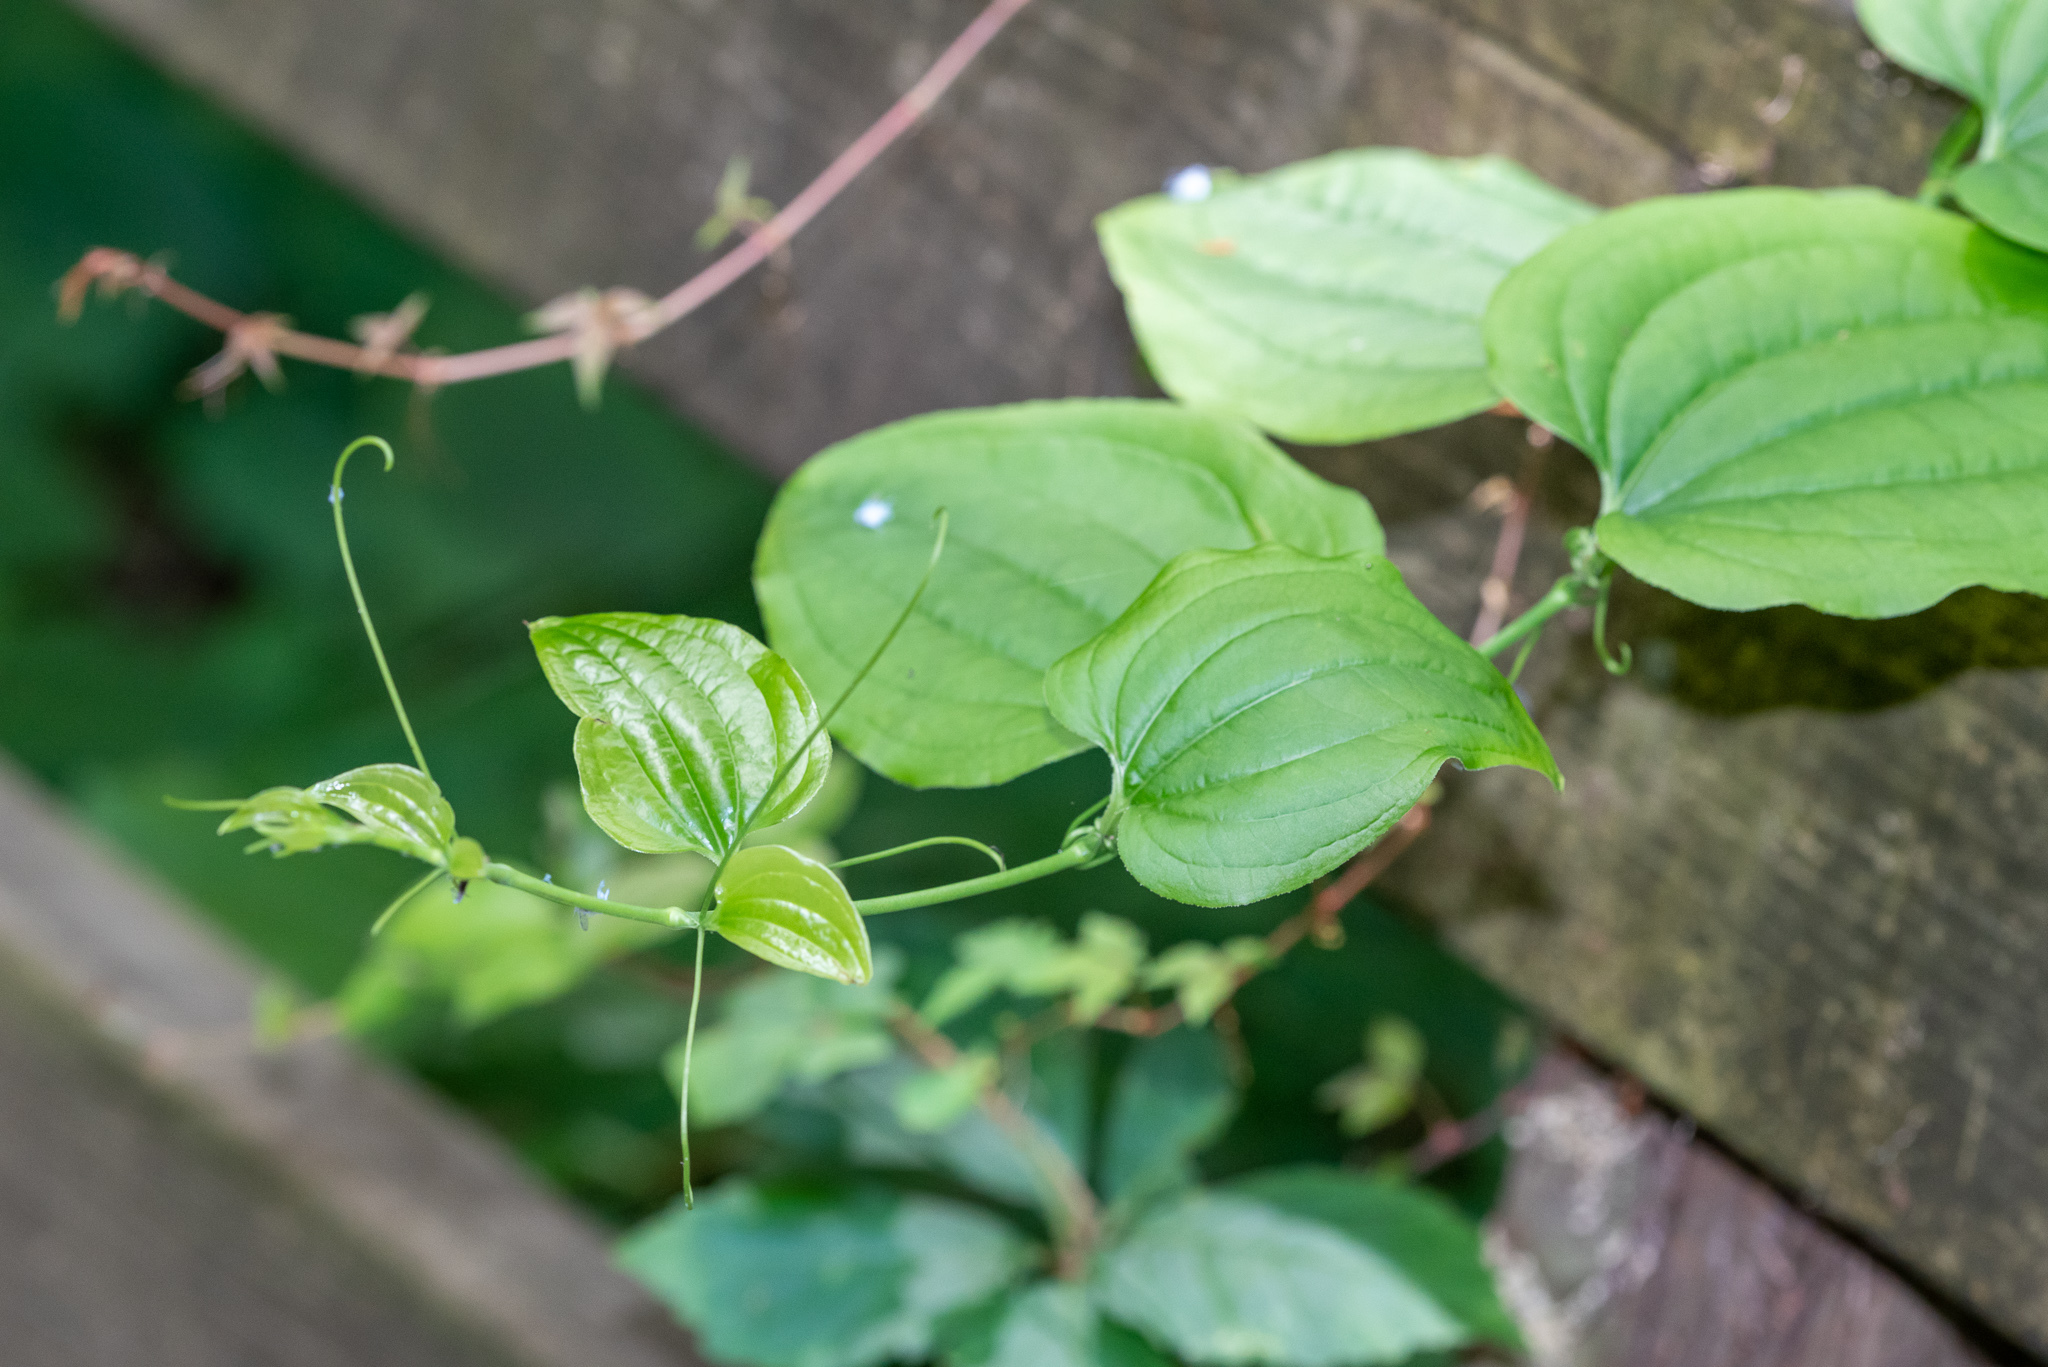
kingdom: Plantae
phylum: Tracheophyta
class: Liliopsida
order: Liliales
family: Smilacaceae
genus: Smilax
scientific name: Smilax tamnoides
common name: Hellfetter
